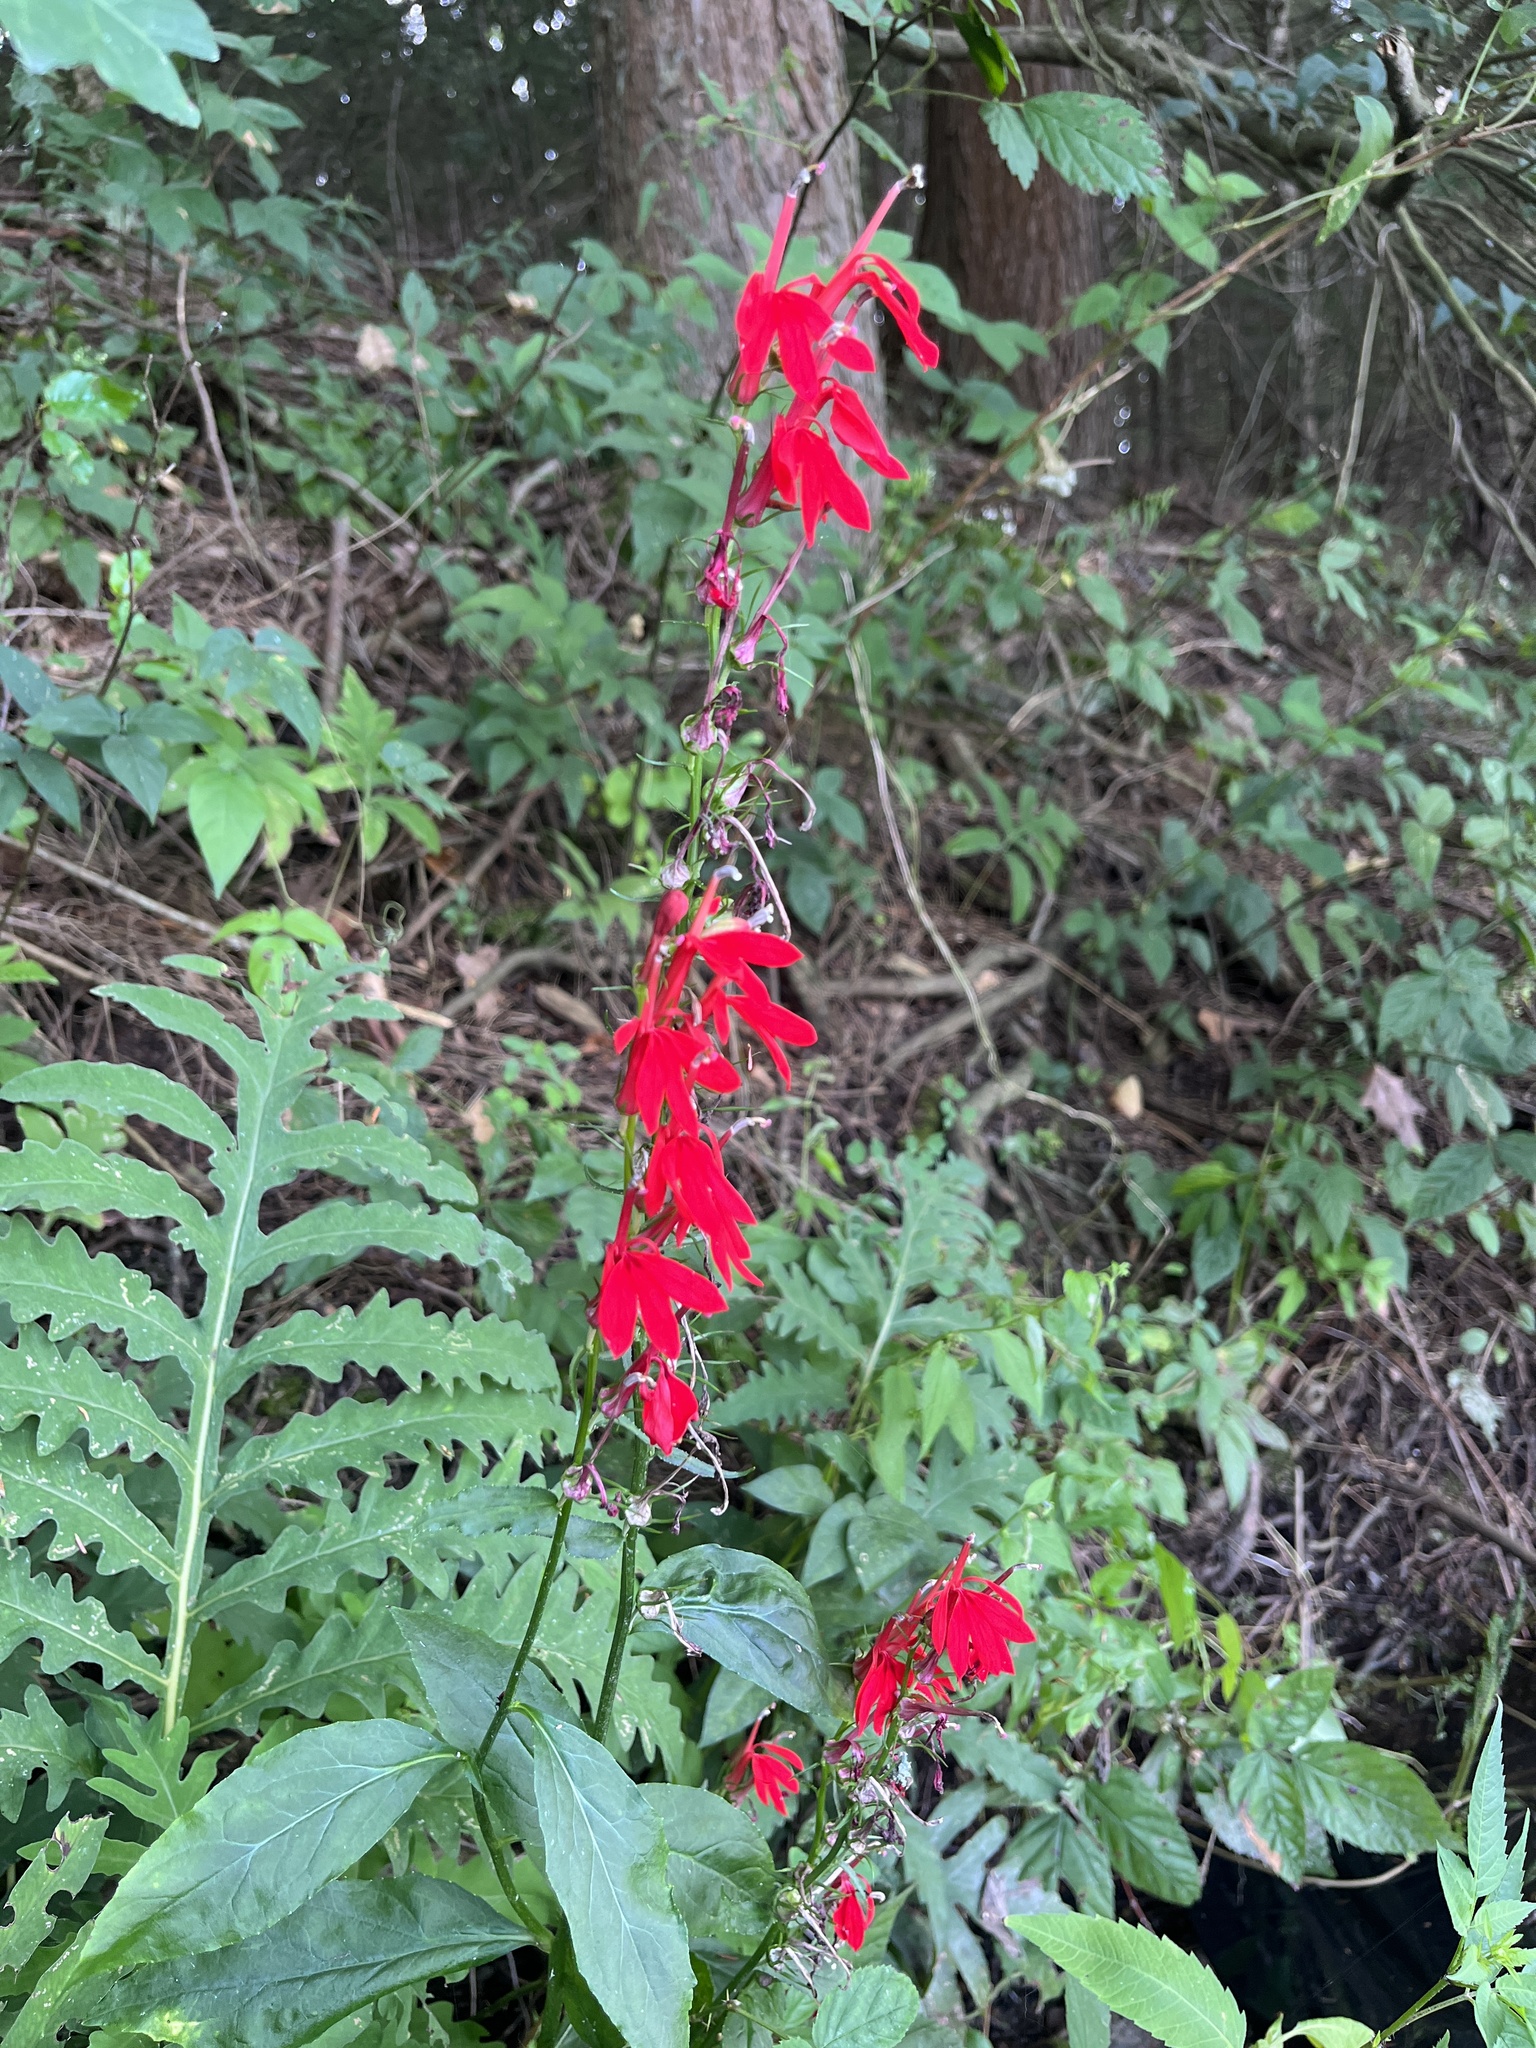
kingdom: Plantae
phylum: Tracheophyta
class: Magnoliopsida
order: Asterales
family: Campanulaceae
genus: Lobelia
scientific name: Lobelia cardinalis
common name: Cardinal flower
